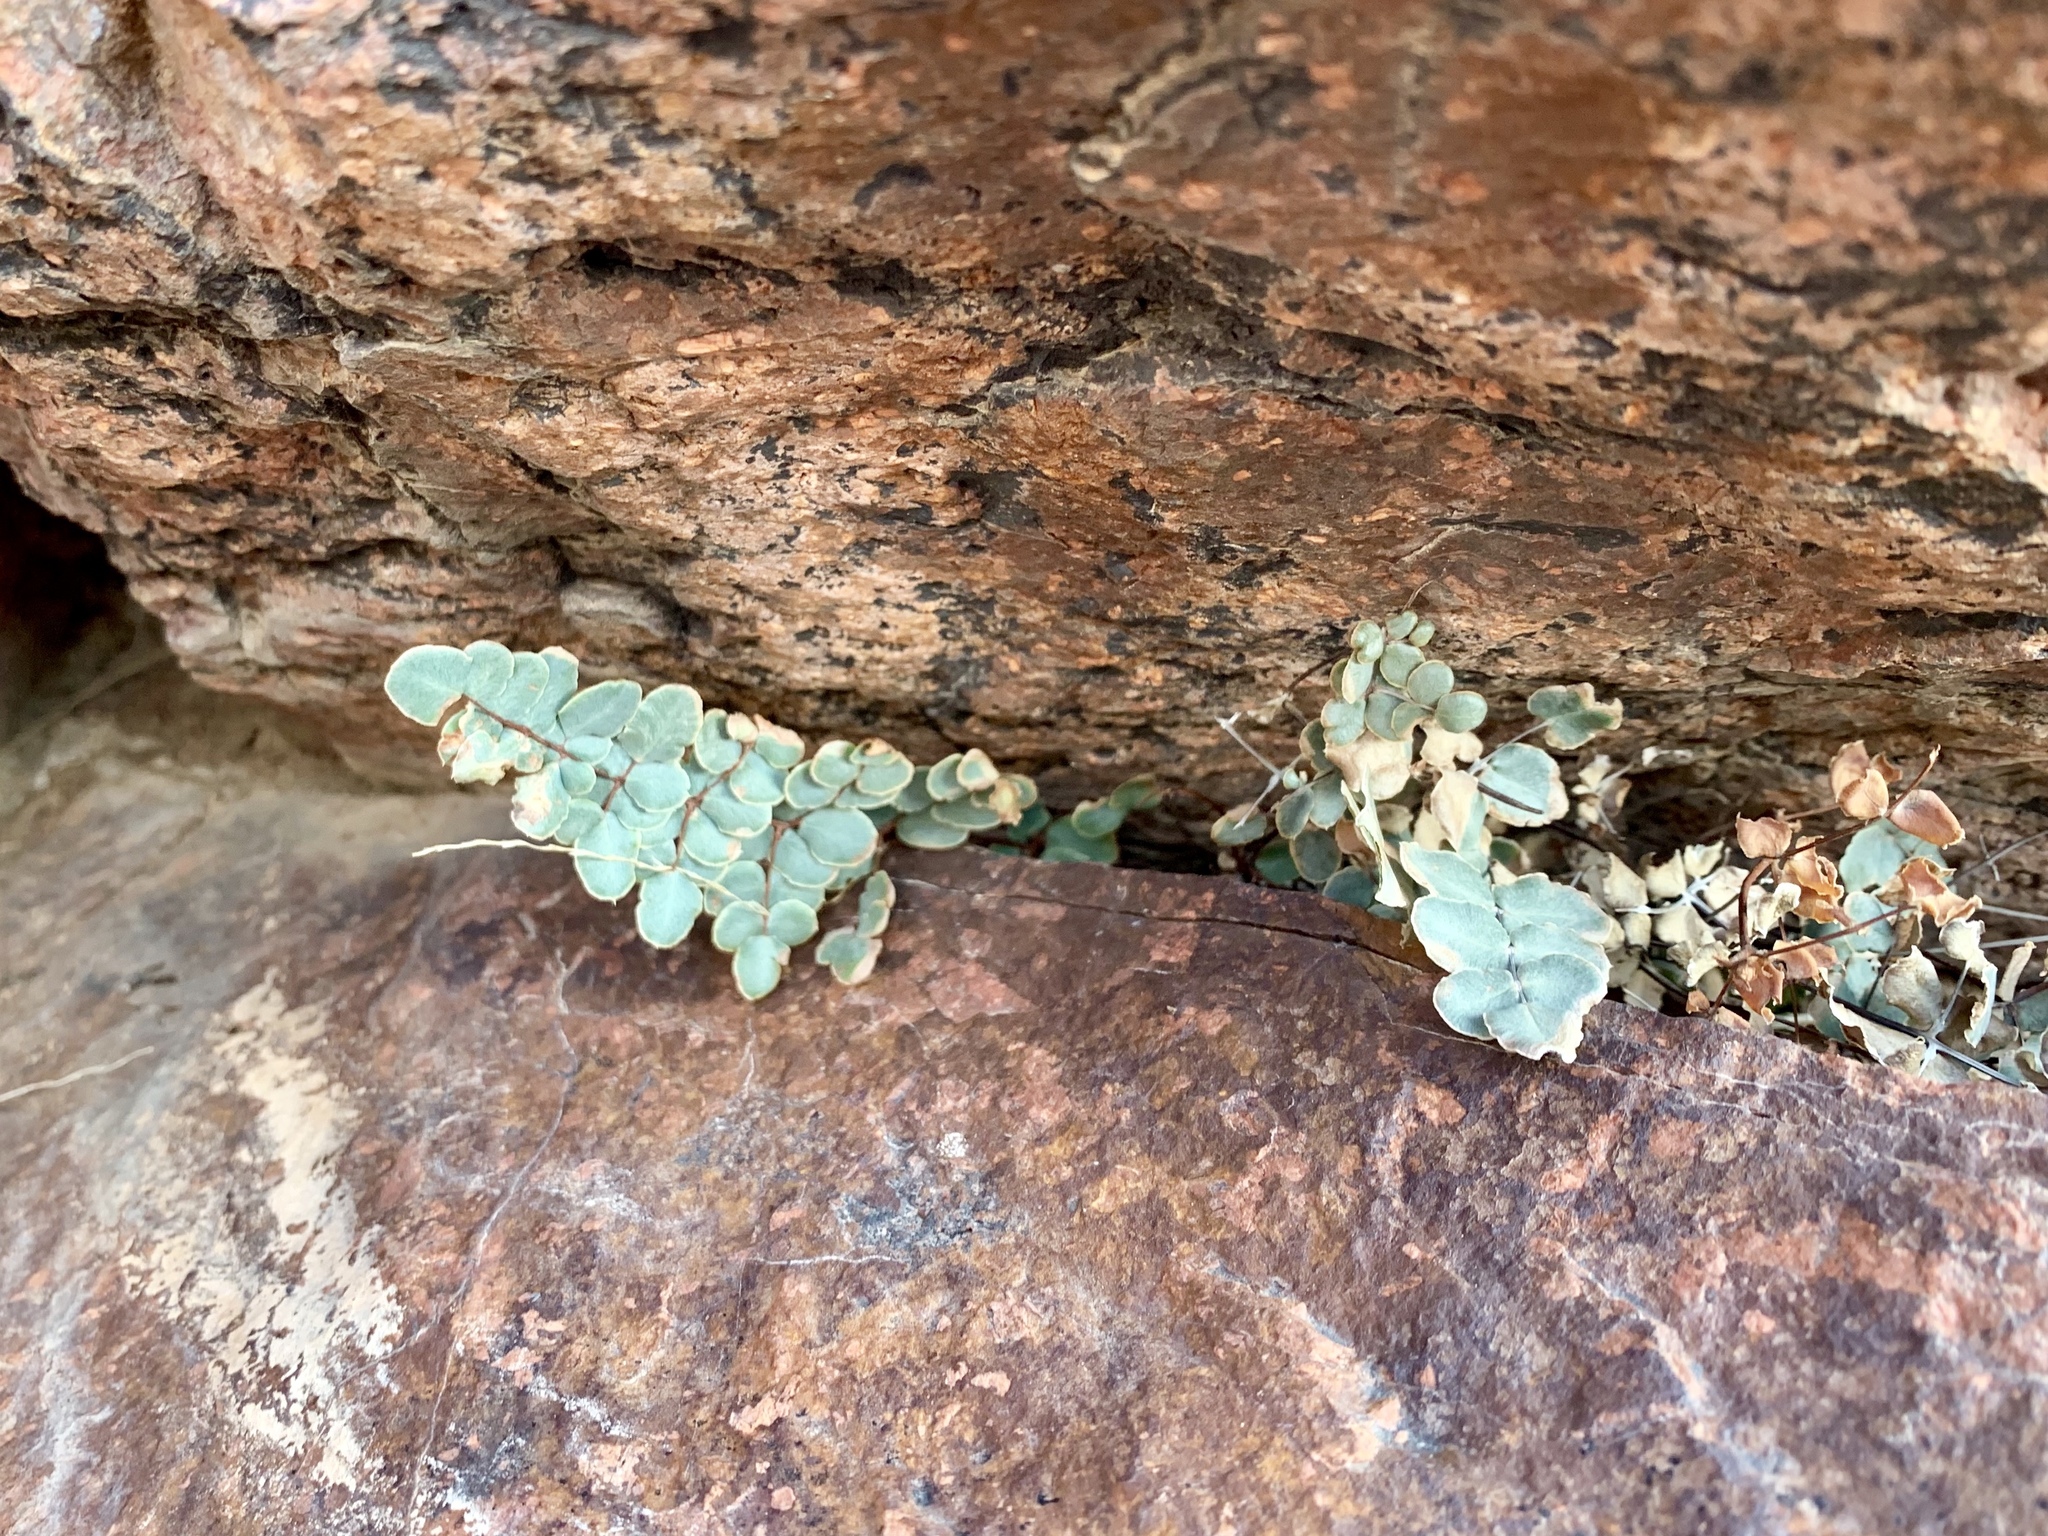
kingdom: Plantae
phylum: Tracheophyta
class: Polypodiopsida
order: Polypodiales
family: Pteridaceae
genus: Pellaea
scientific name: Pellaea intermedia
